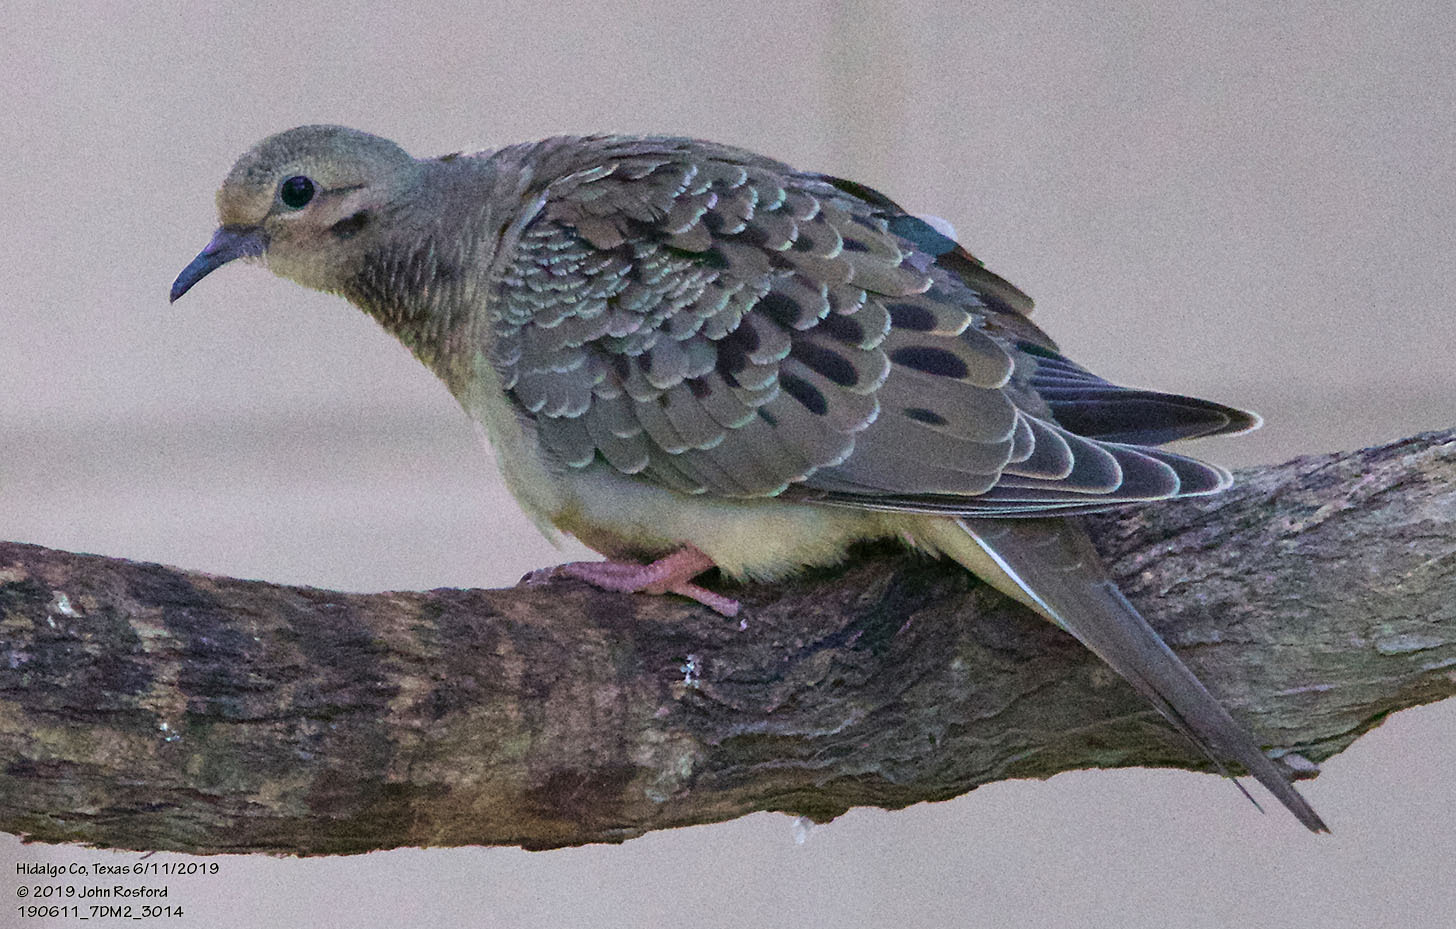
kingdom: Animalia
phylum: Chordata
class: Aves
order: Columbiformes
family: Columbidae
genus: Zenaida
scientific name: Zenaida macroura
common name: Mourning dove
